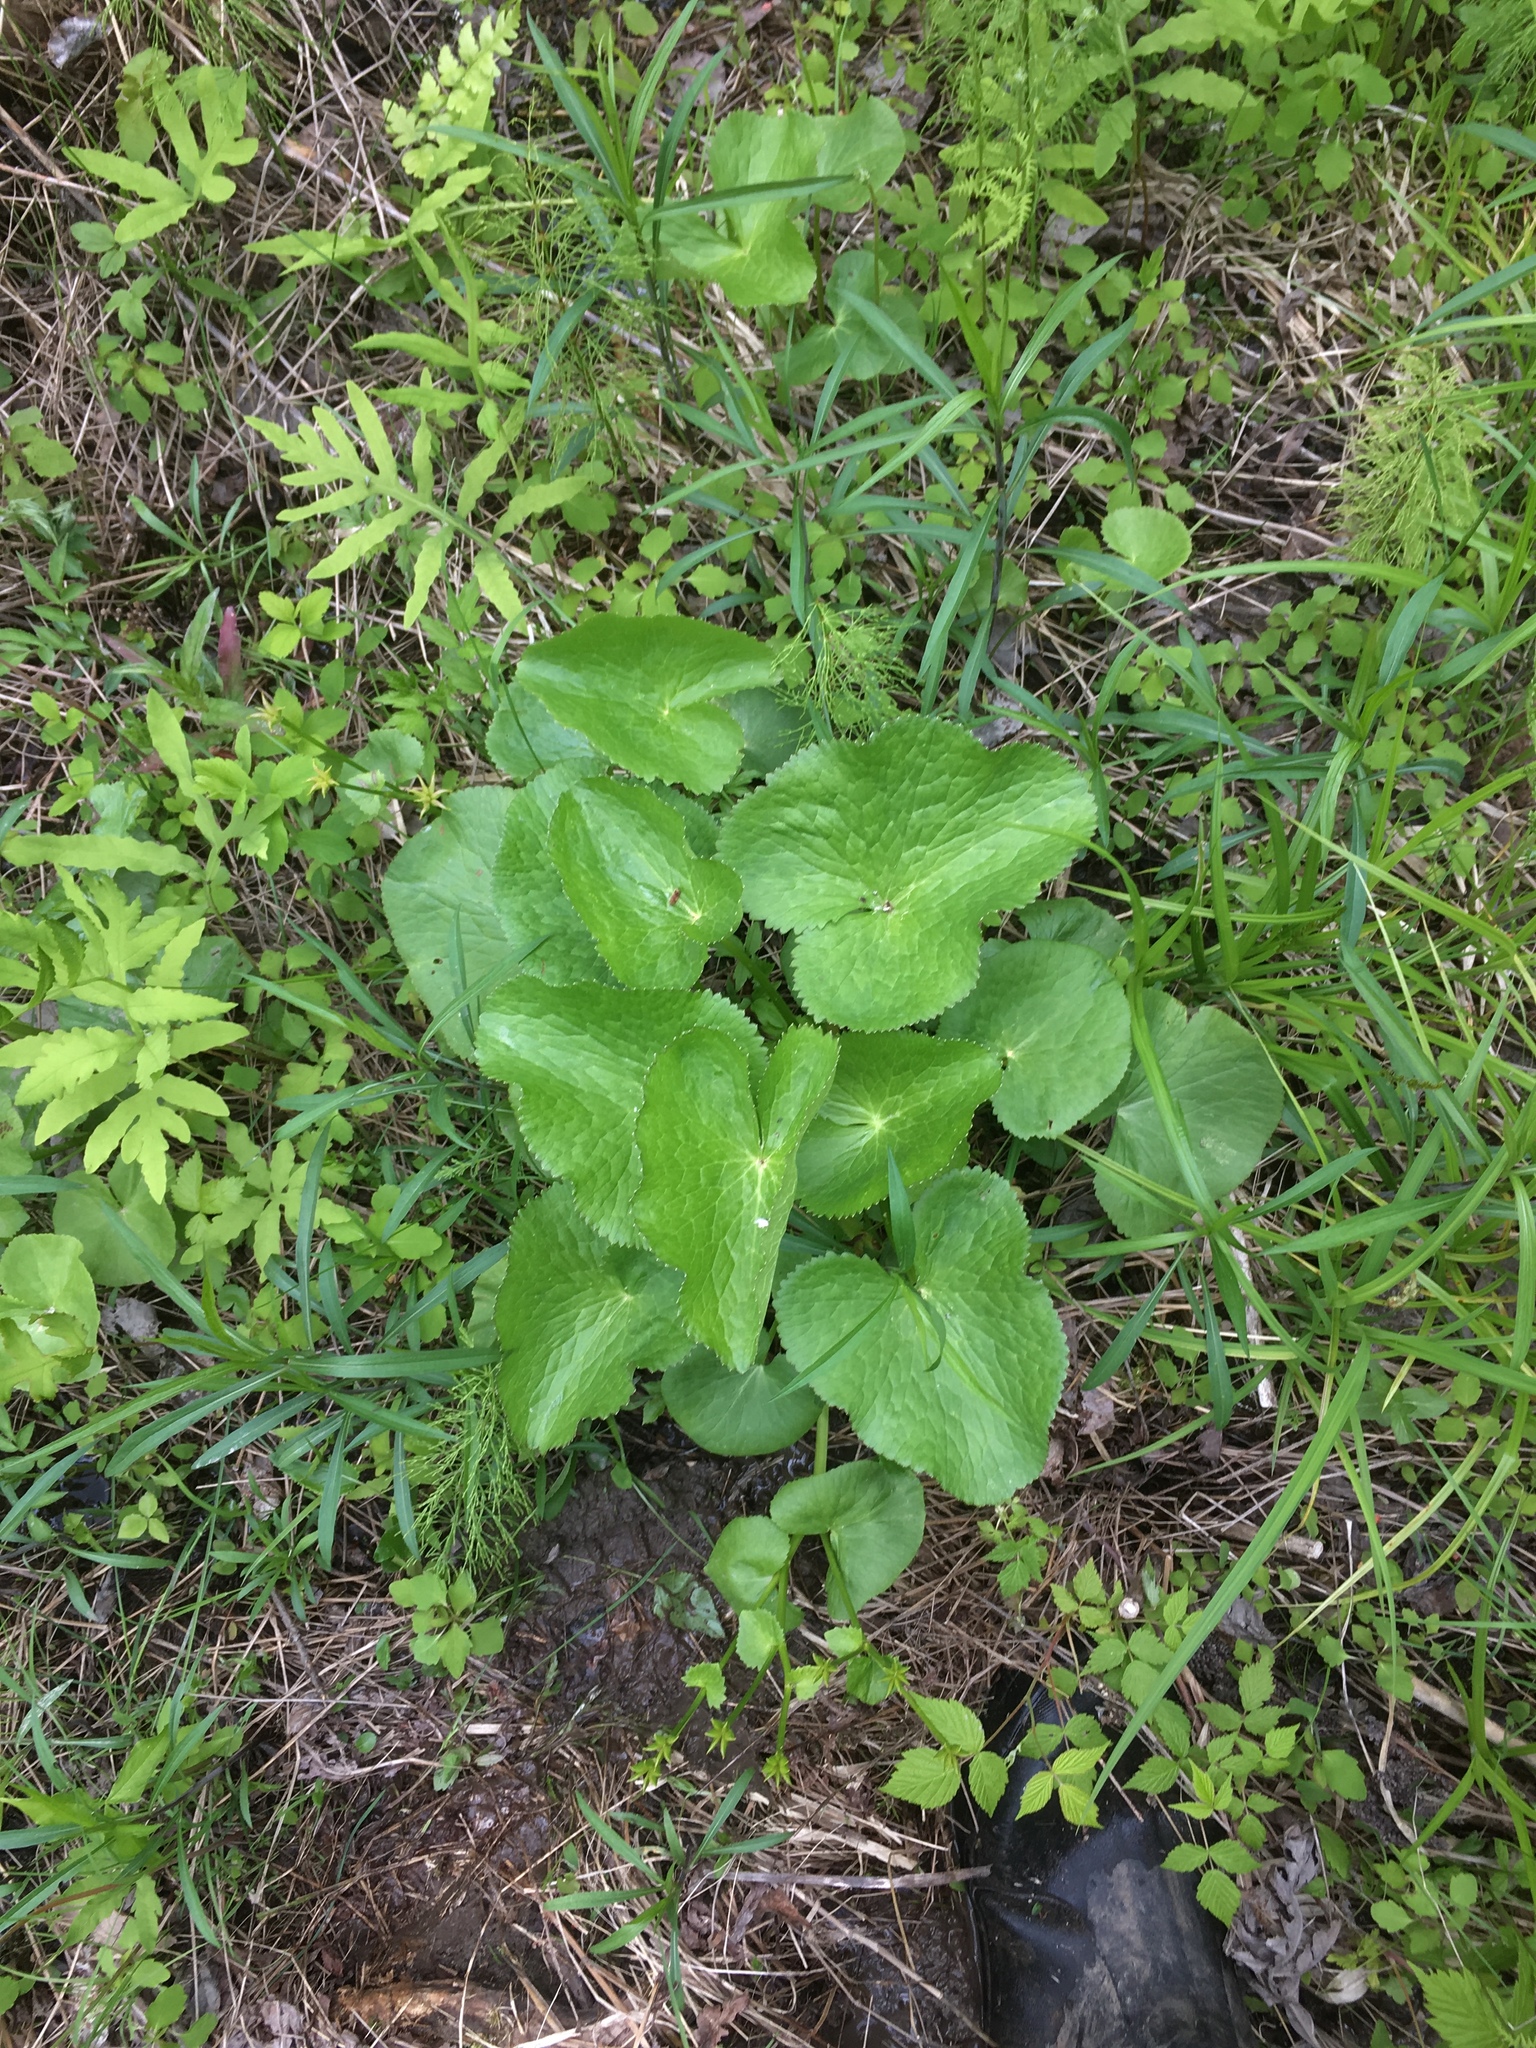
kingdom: Plantae
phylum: Tracheophyta
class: Magnoliopsida
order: Ranunculales
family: Ranunculaceae
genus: Caltha
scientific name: Caltha palustris
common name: Marsh marigold
